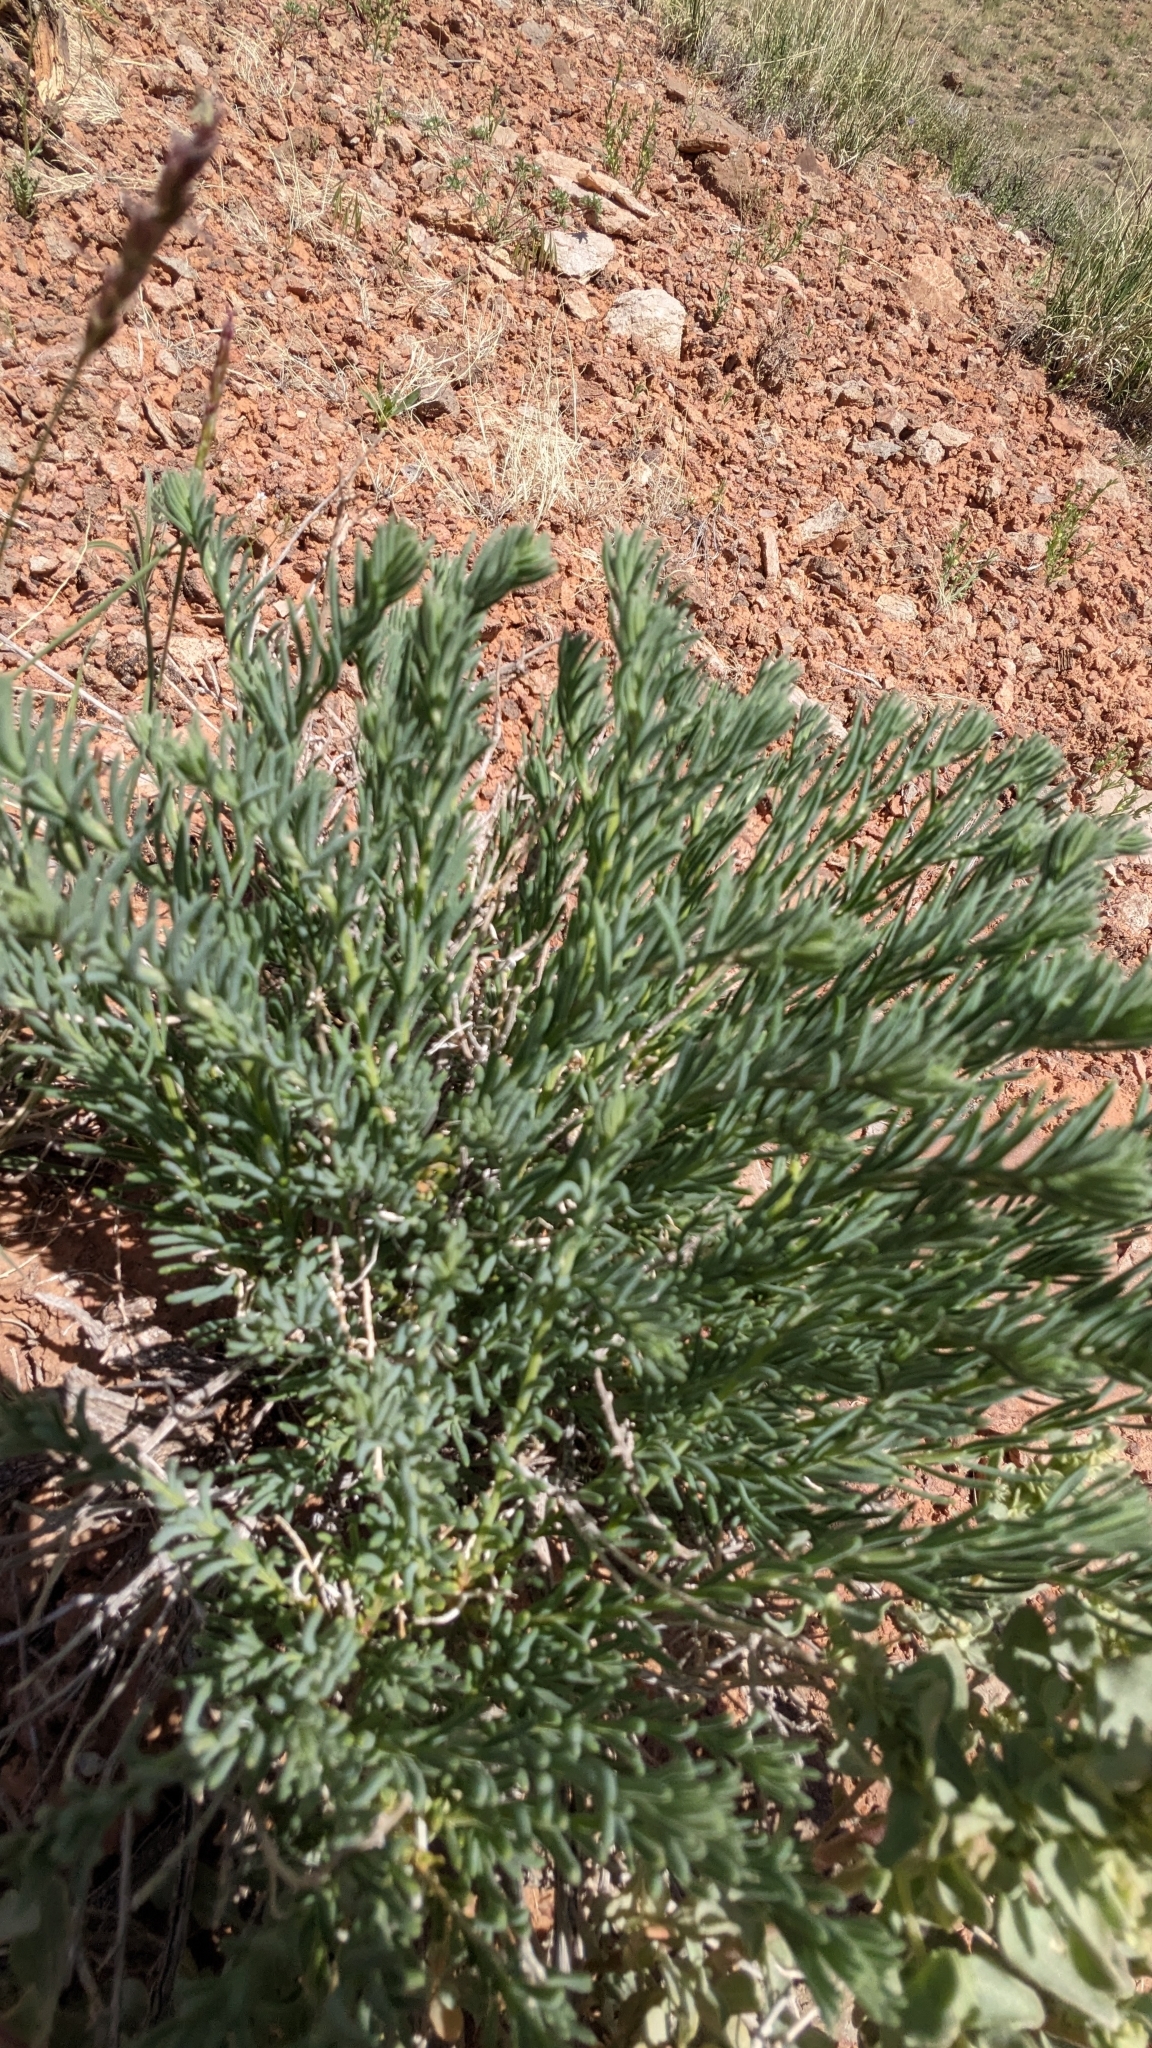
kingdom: Plantae
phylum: Tracheophyta
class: Magnoliopsida
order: Caryophyllales
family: Sarcobataceae
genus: Sarcobatus
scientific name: Sarcobatus vermiculatus
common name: Greasewood
